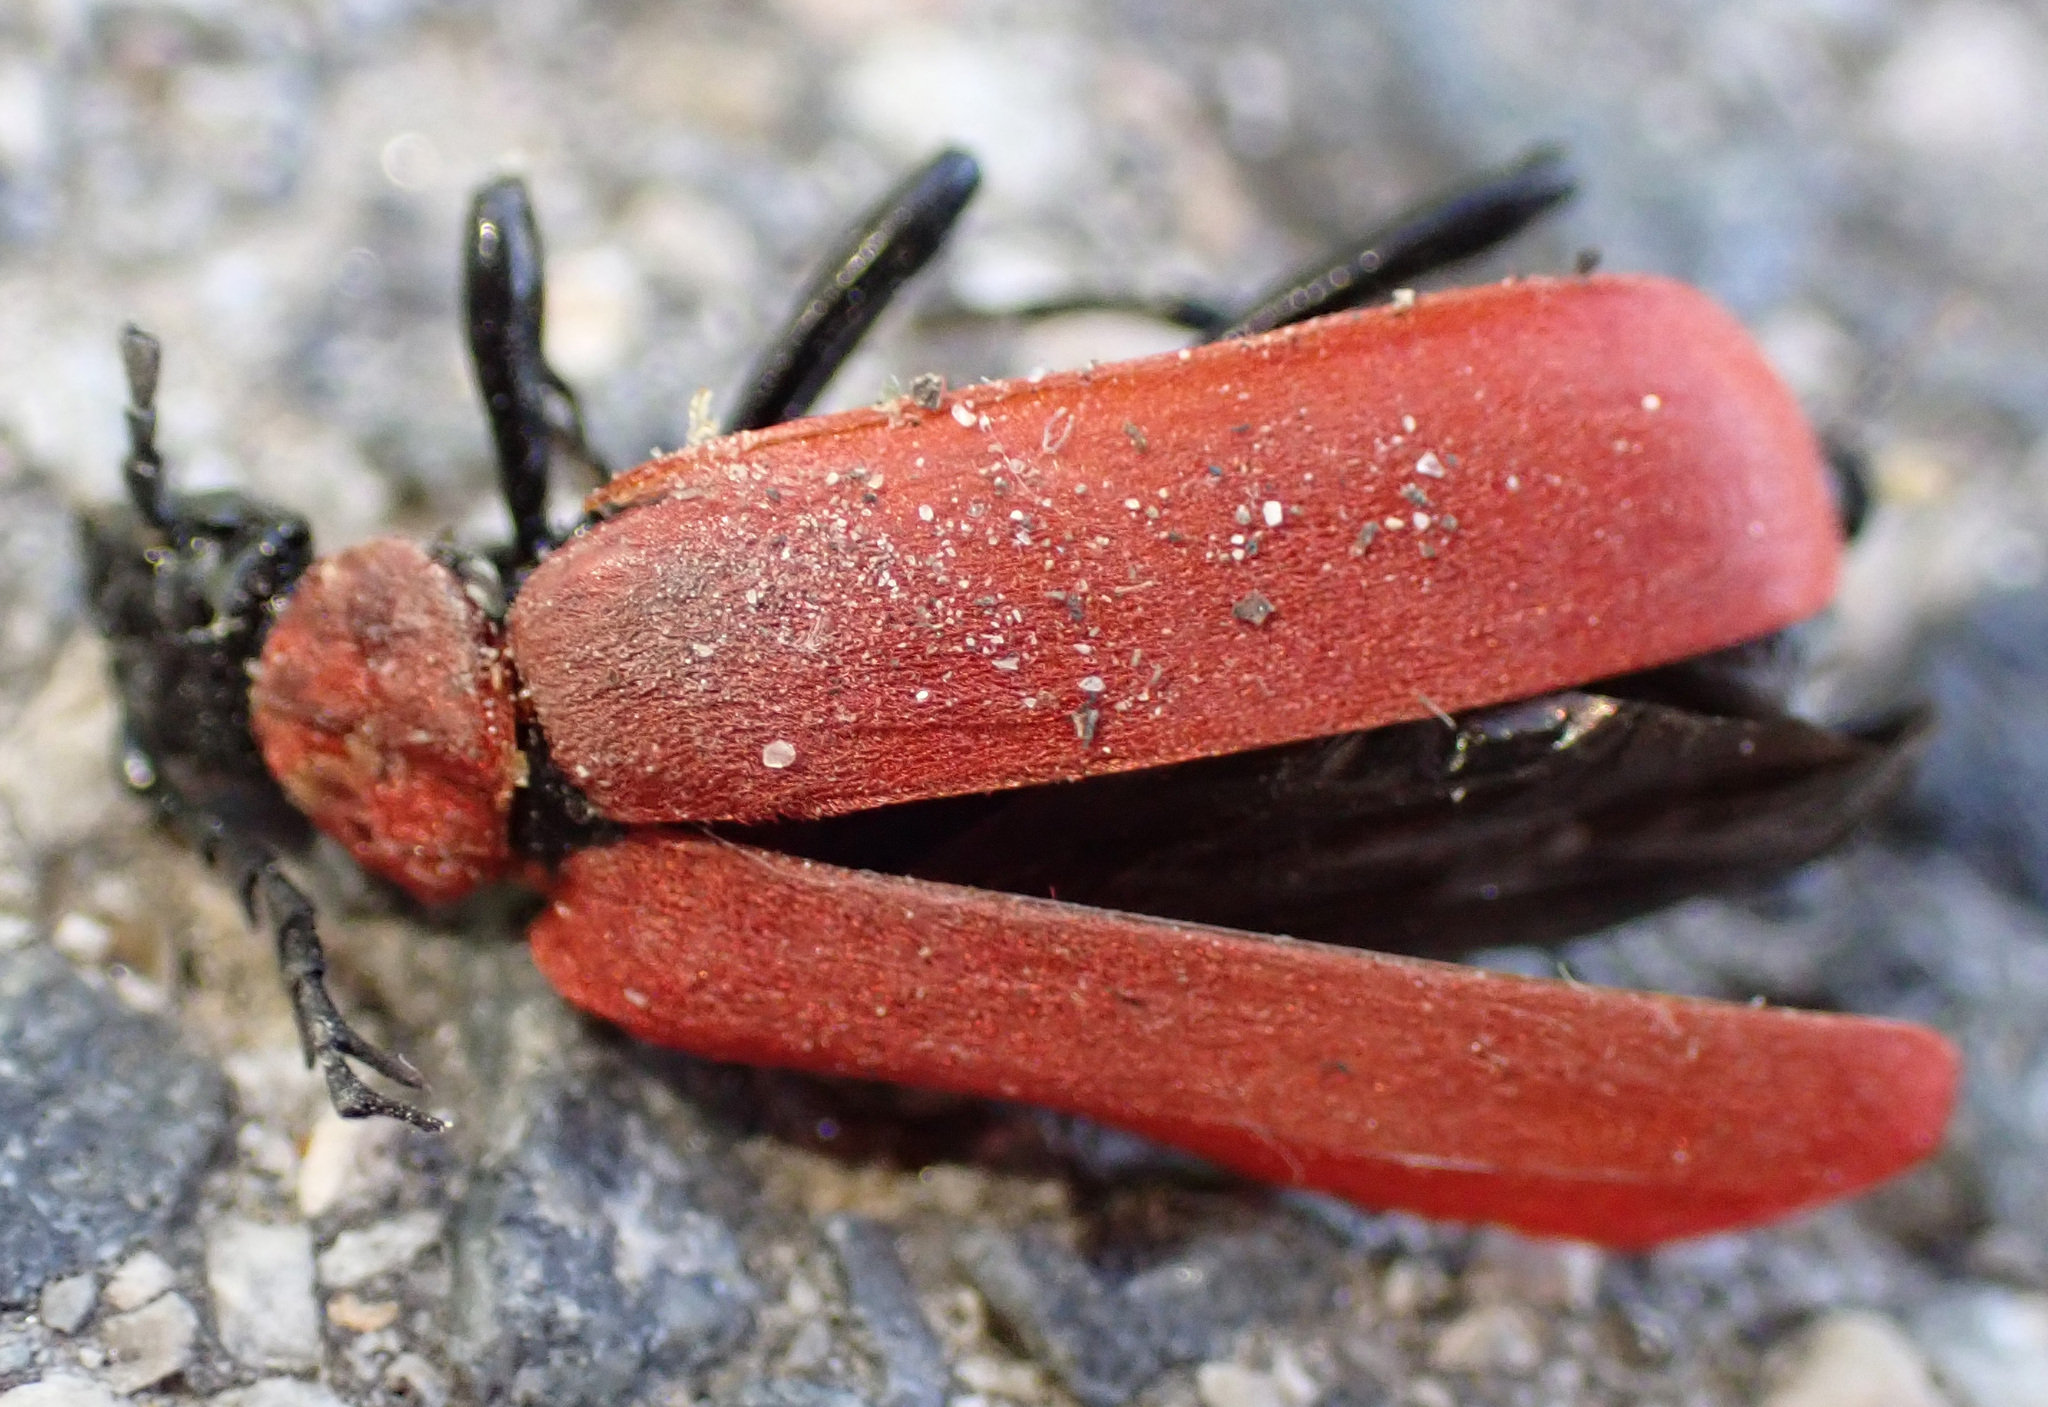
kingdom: Animalia
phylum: Arthropoda
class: Insecta
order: Coleoptera
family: Pyrochroidae
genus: Pyrochroa
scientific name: Pyrochroa coccinea
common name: Black-headed cardinal beetle
